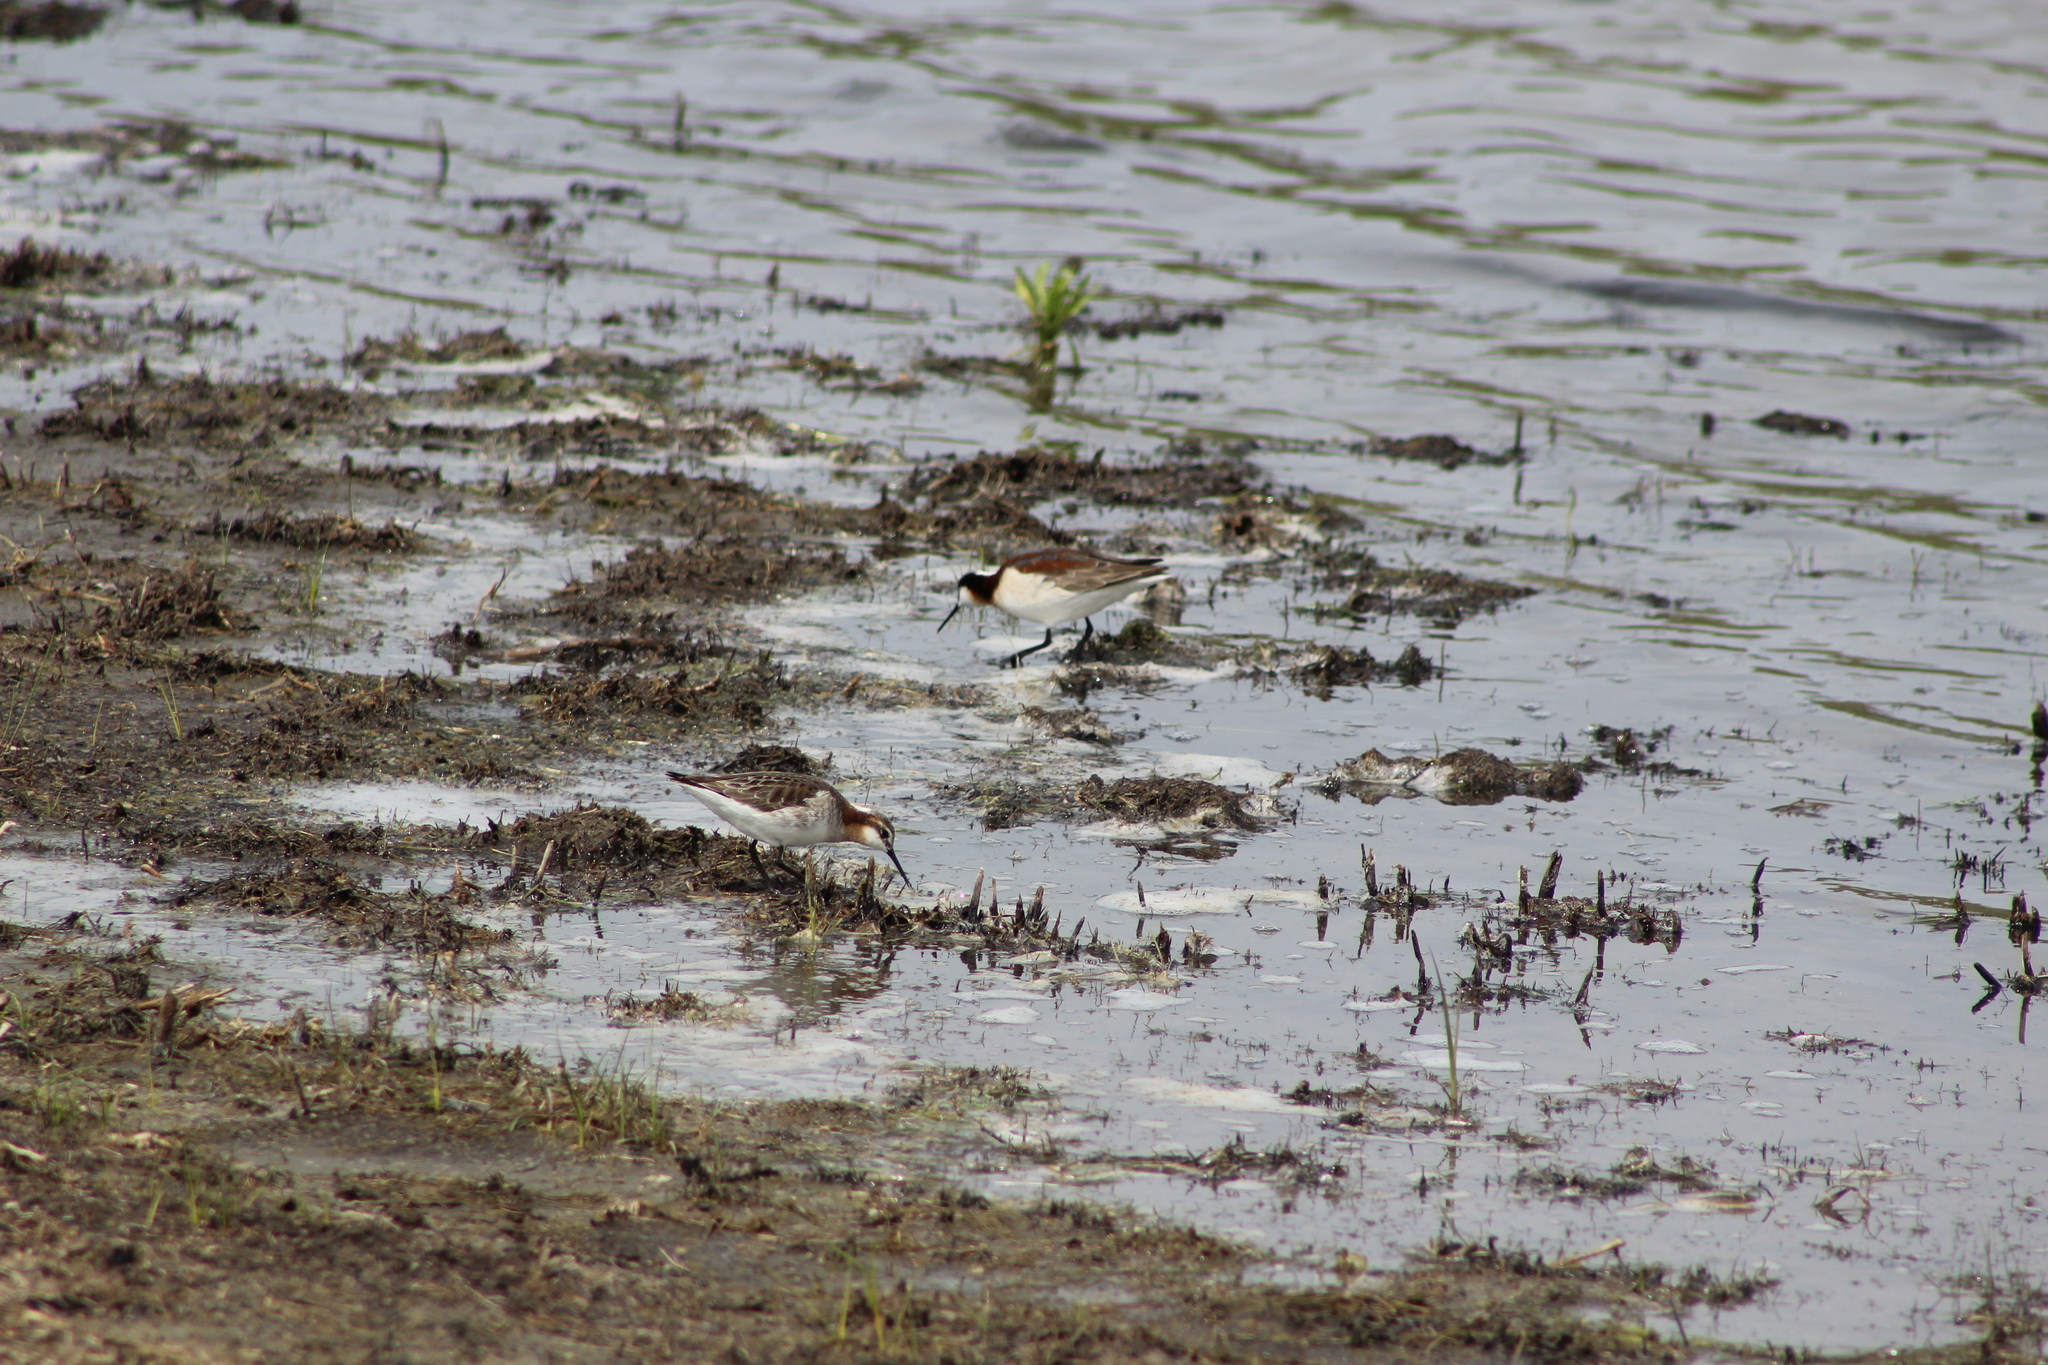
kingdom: Animalia
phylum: Chordata
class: Aves
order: Charadriiformes
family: Scolopacidae
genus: Phalaropus
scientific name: Phalaropus tricolor
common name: Wilson's phalarope
